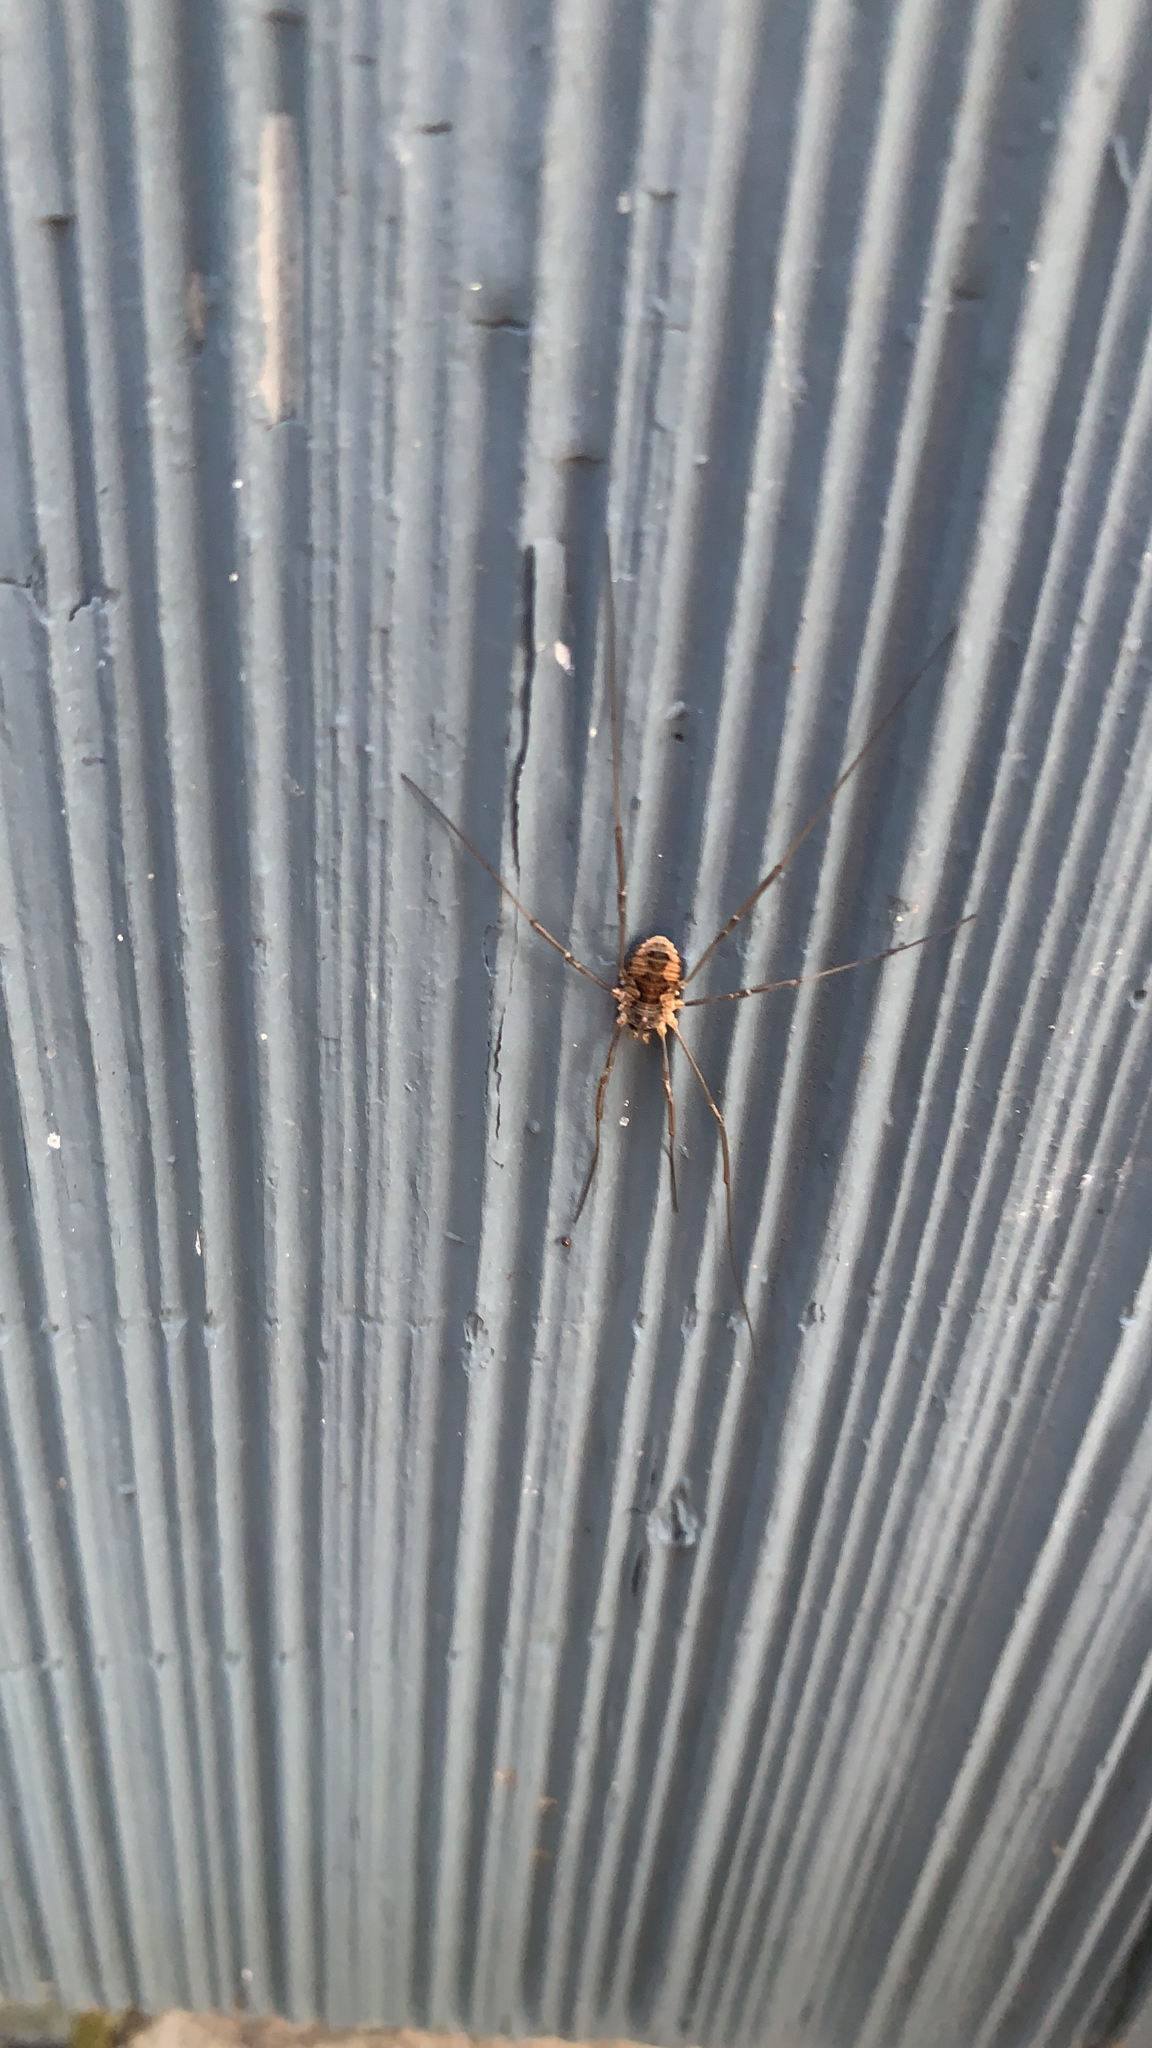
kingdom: Animalia
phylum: Arthropoda
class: Arachnida
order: Opiliones
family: Phalangiidae
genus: Phalangium
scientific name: Phalangium opilio
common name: Daddy longleg
